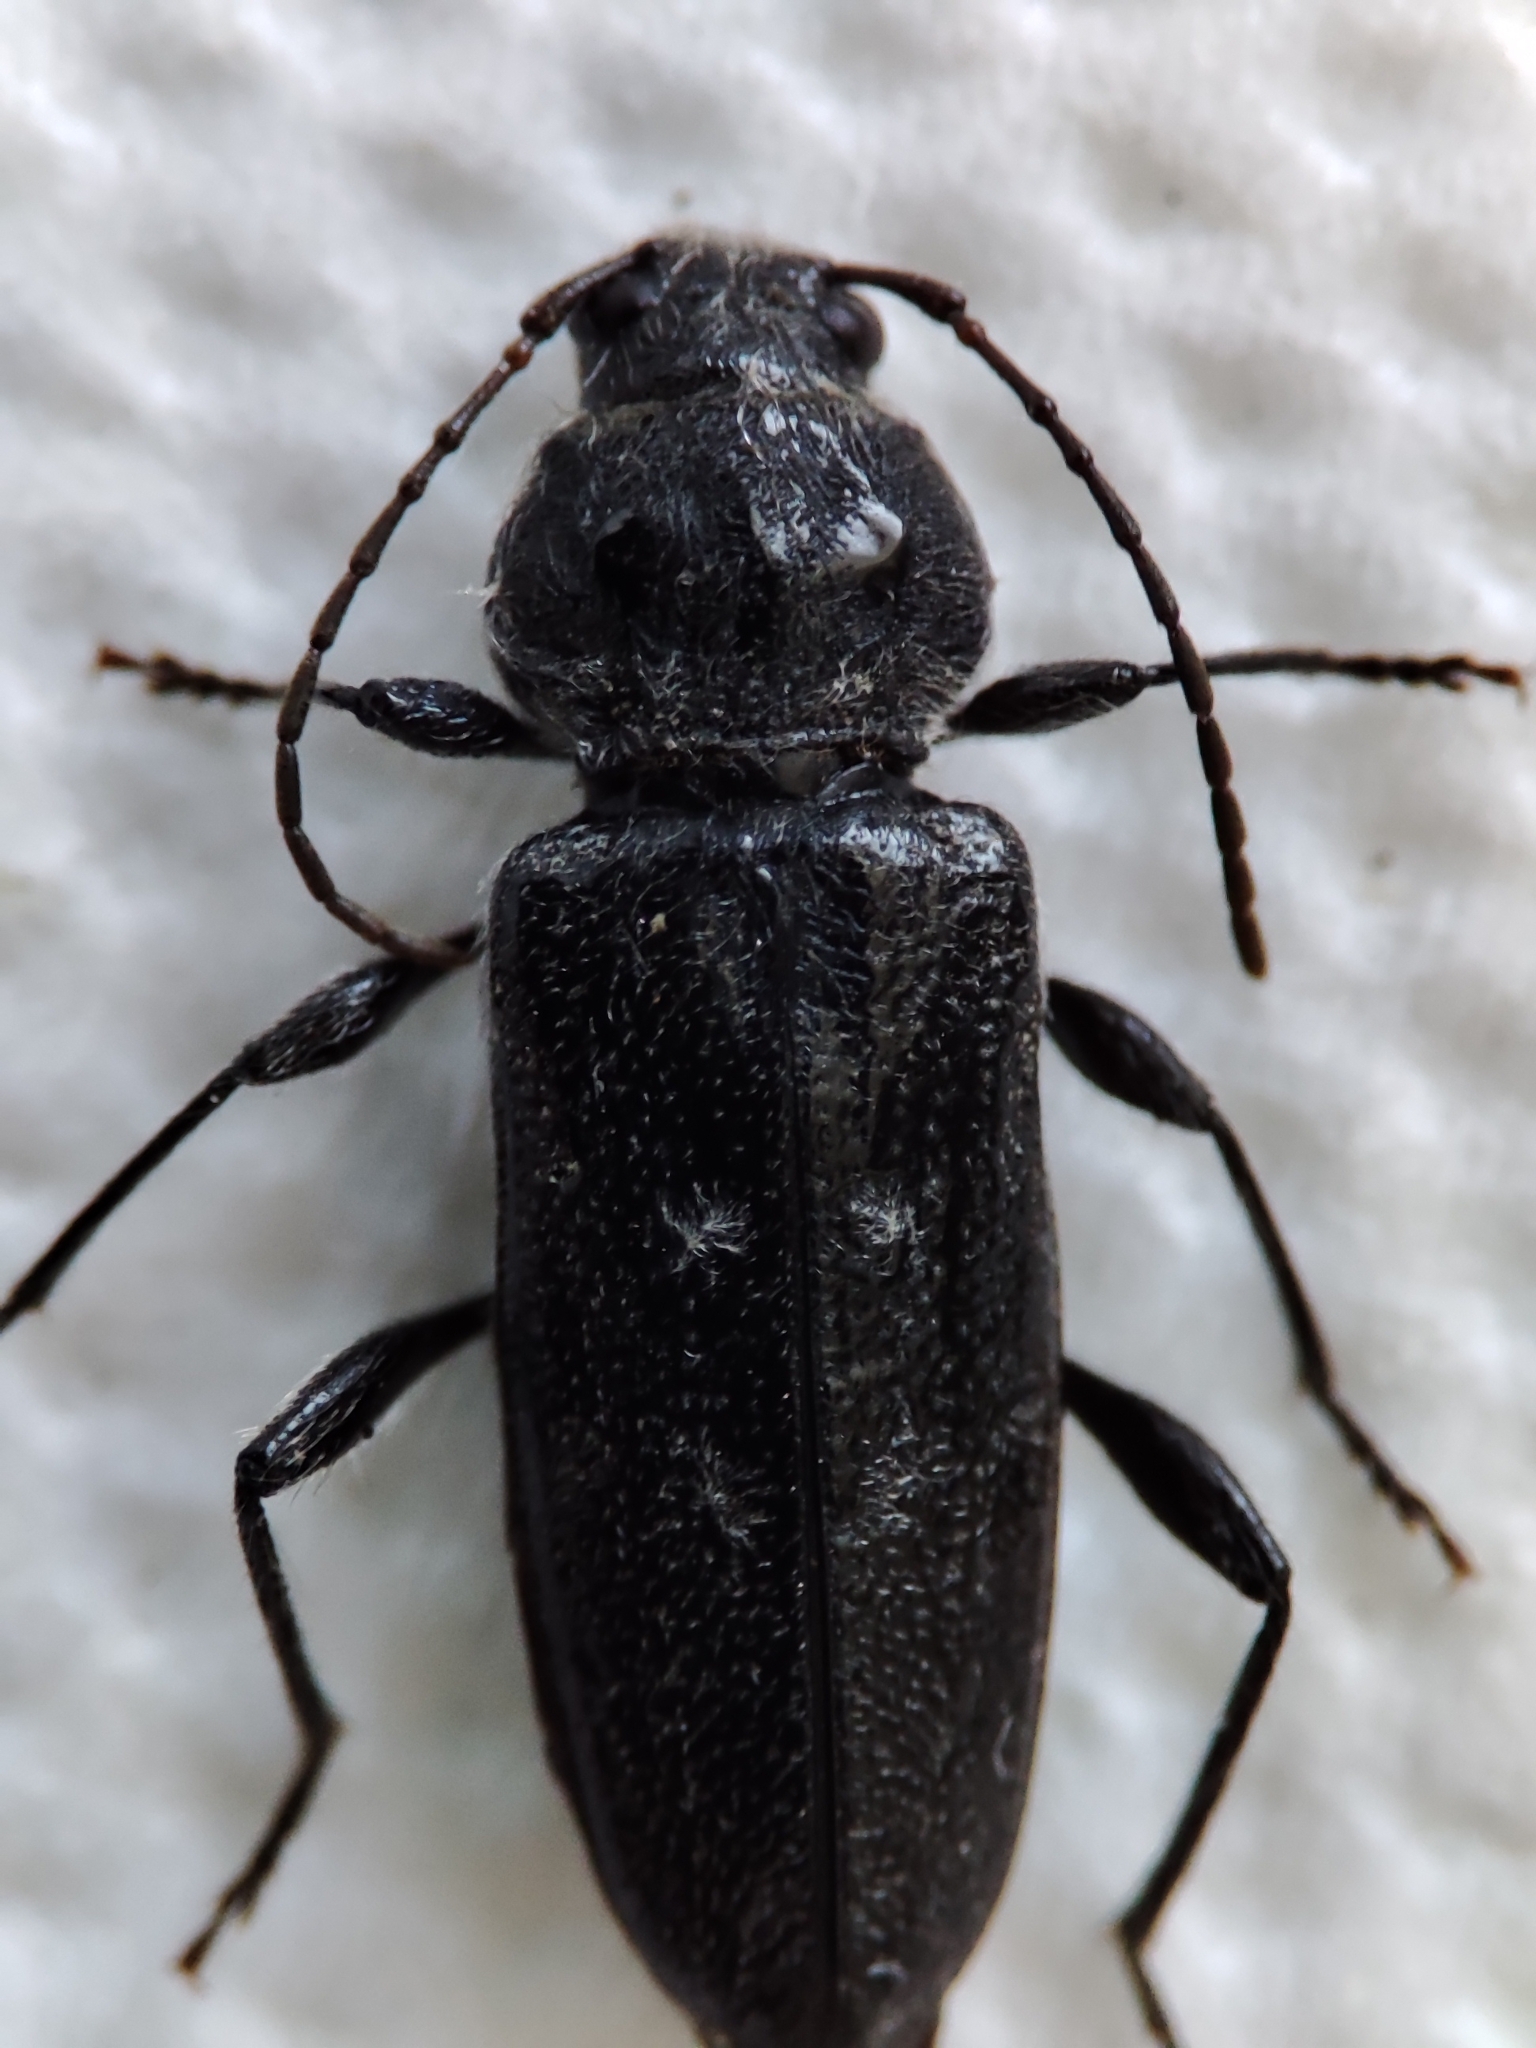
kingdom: Animalia
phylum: Arthropoda
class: Insecta
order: Coleoptera
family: Cerambycidae
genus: Hylotrupes
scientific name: Hylotrupes bajulus
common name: Old house borer
